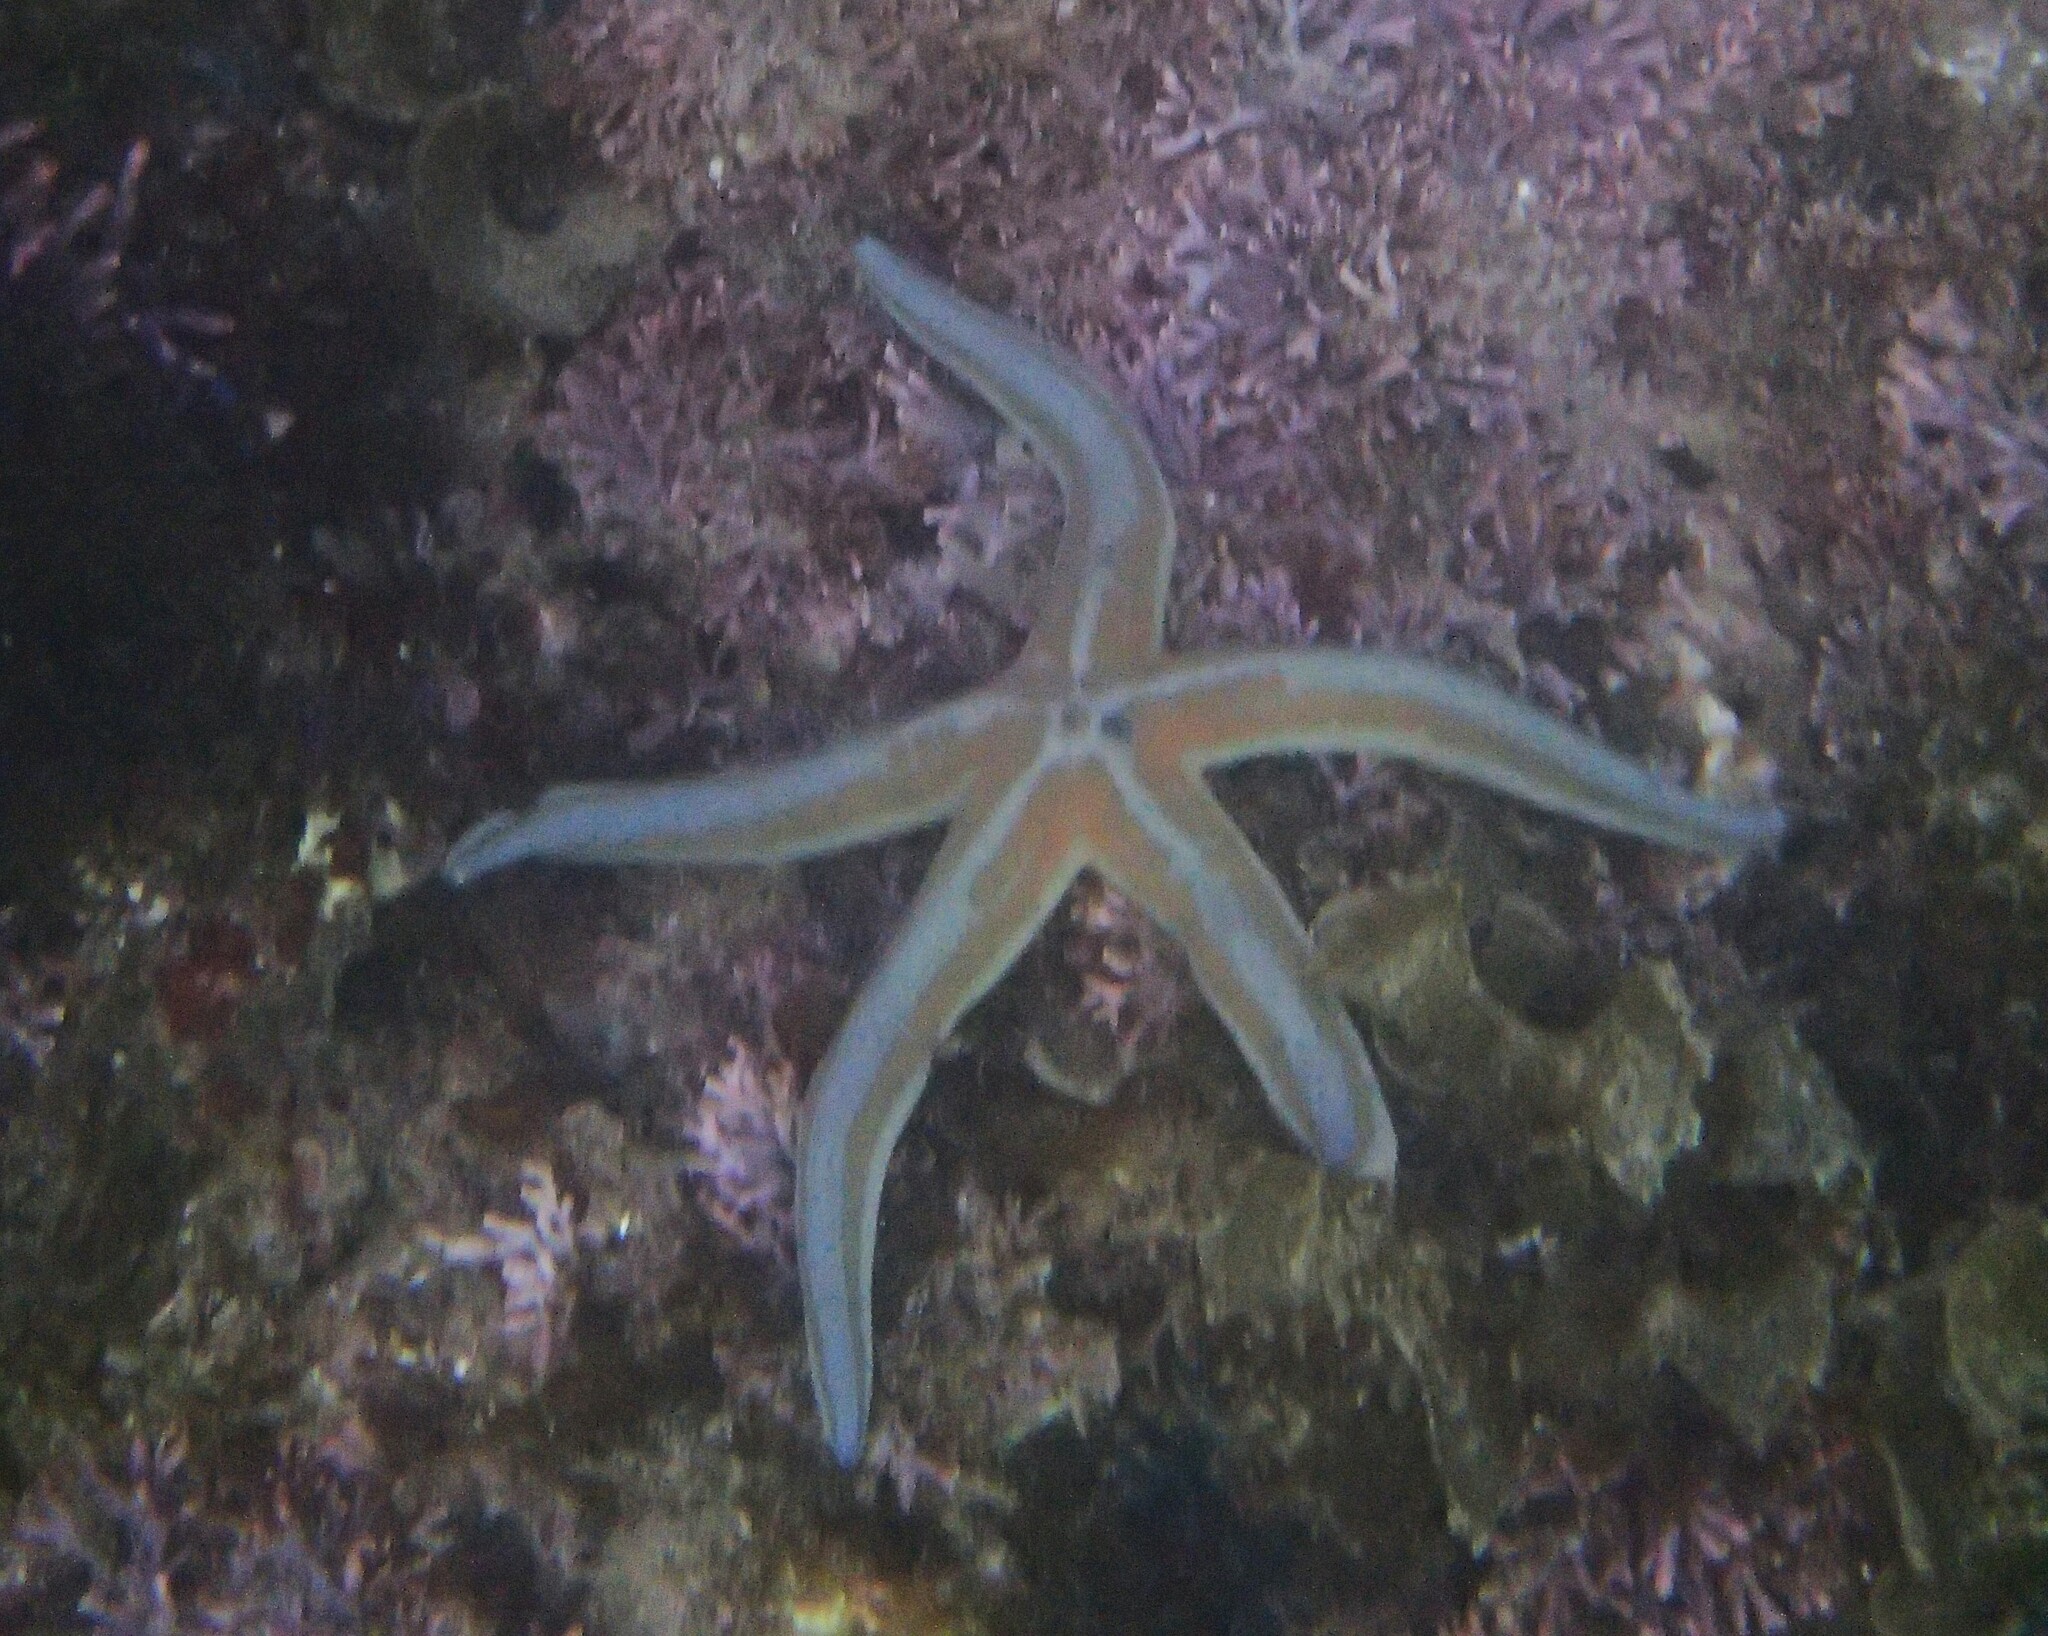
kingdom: Animalia
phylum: Echinodermata
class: Asteroidea
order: Valvatida
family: Ophidiasteridae
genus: Phataria
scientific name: Phataria unifascialis
